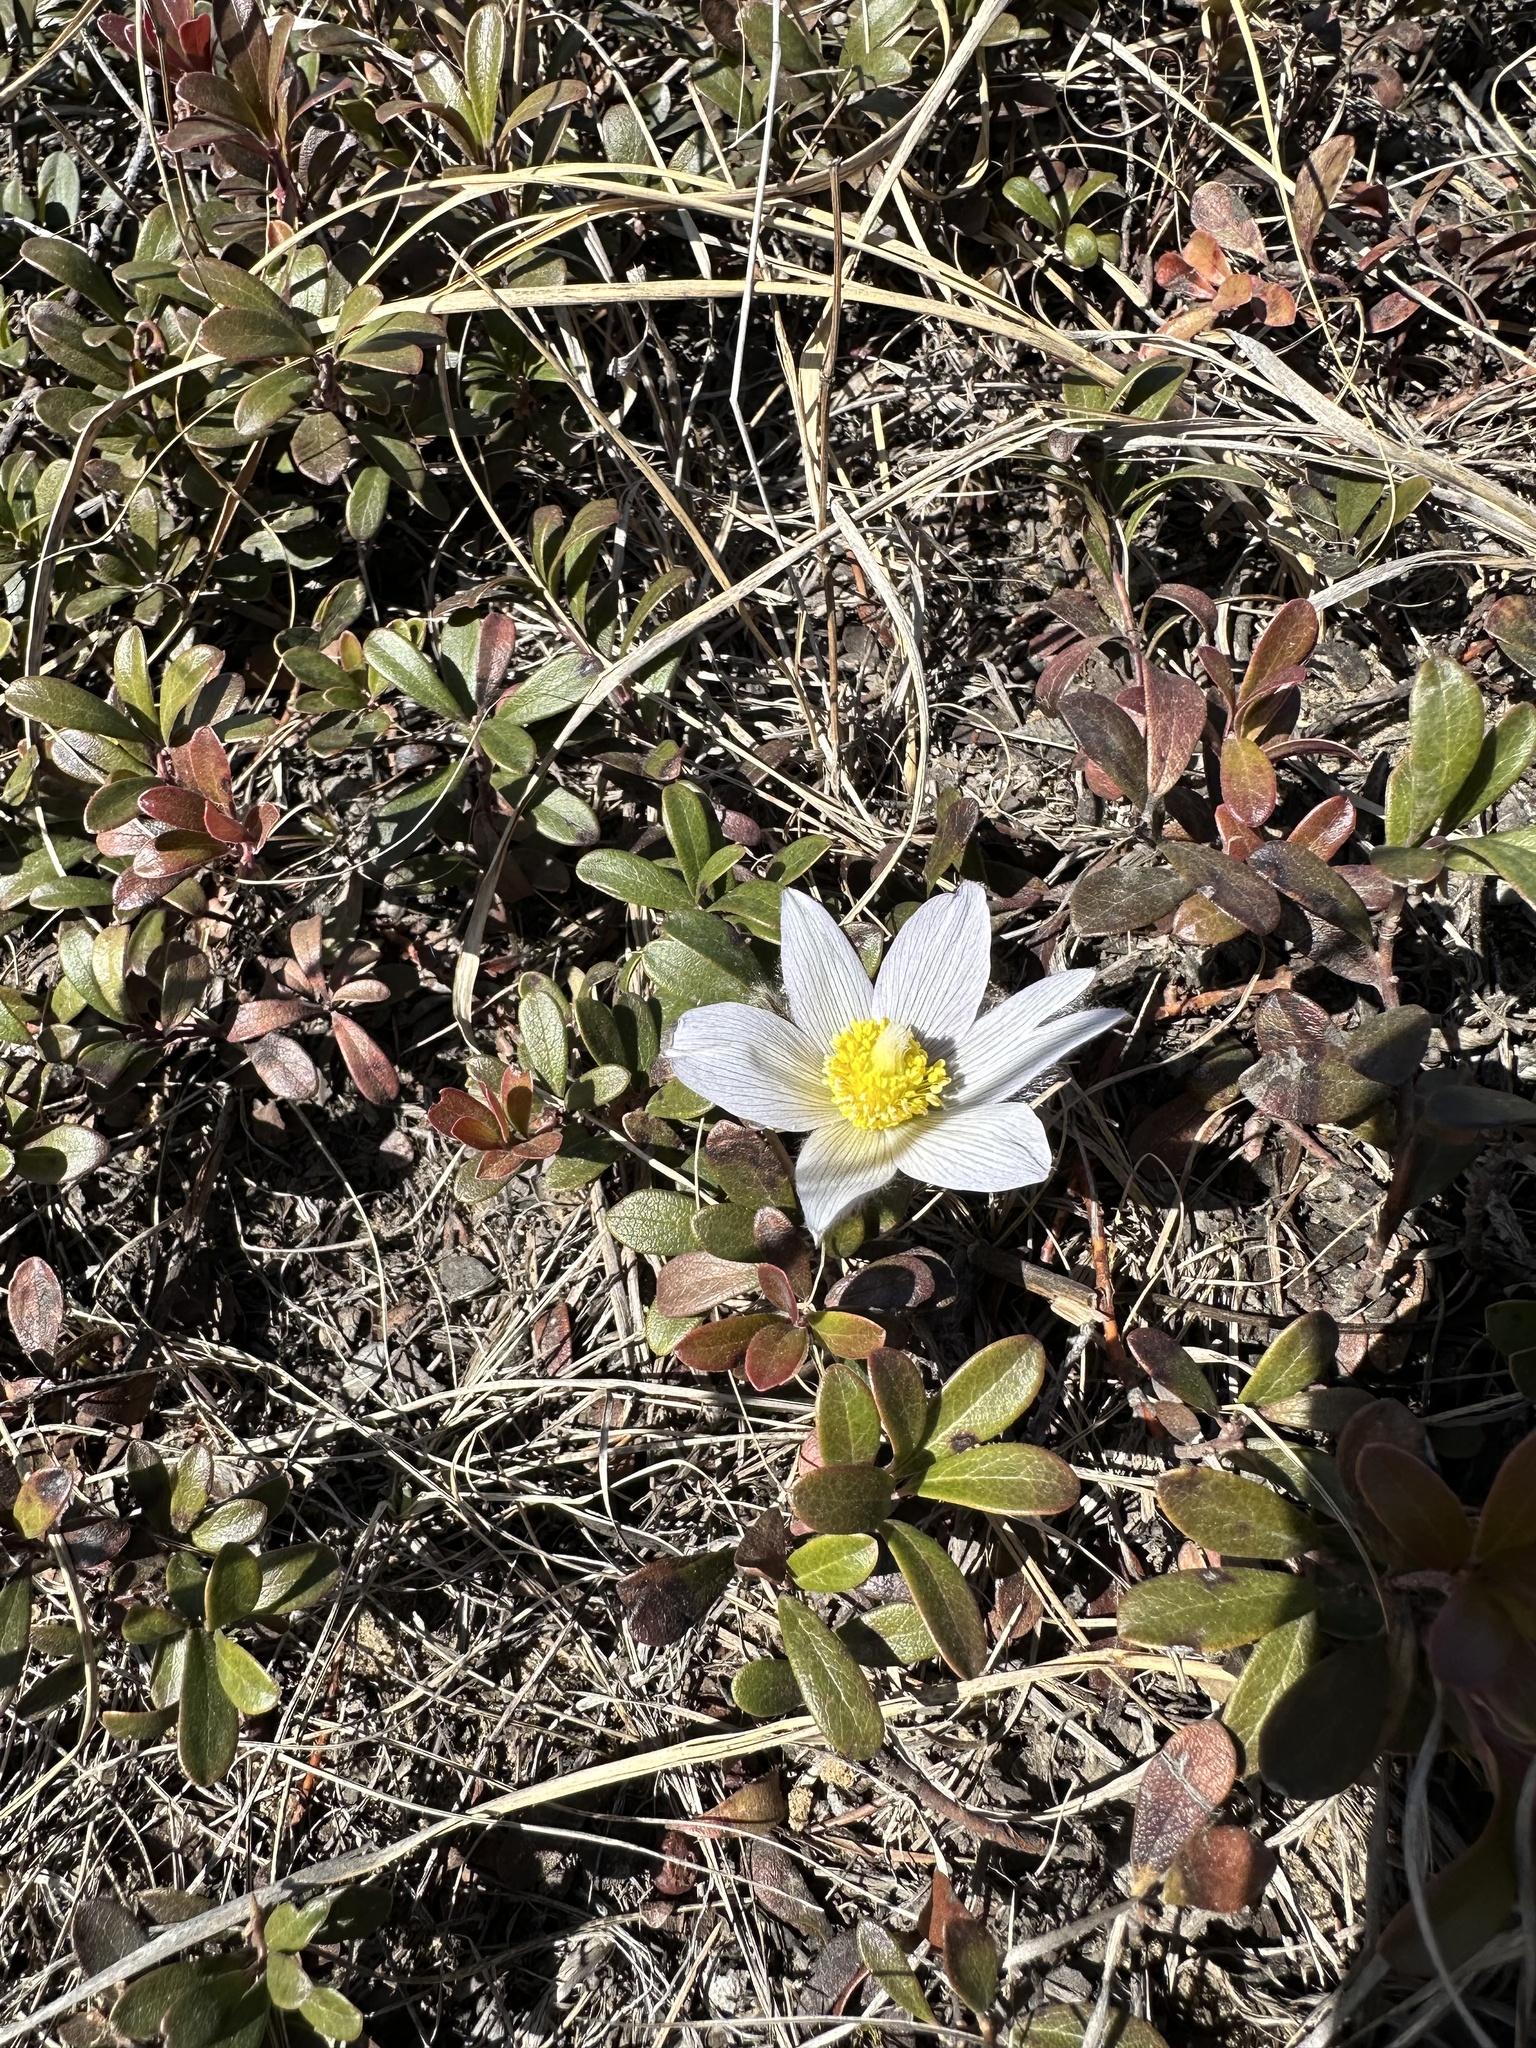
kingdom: Plantae
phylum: Tracheophyta
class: Magnoliopsida
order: Ranunculales
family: Ranunculaceae
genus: Pulsatilla
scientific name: Pulsatilla nuttalliana
